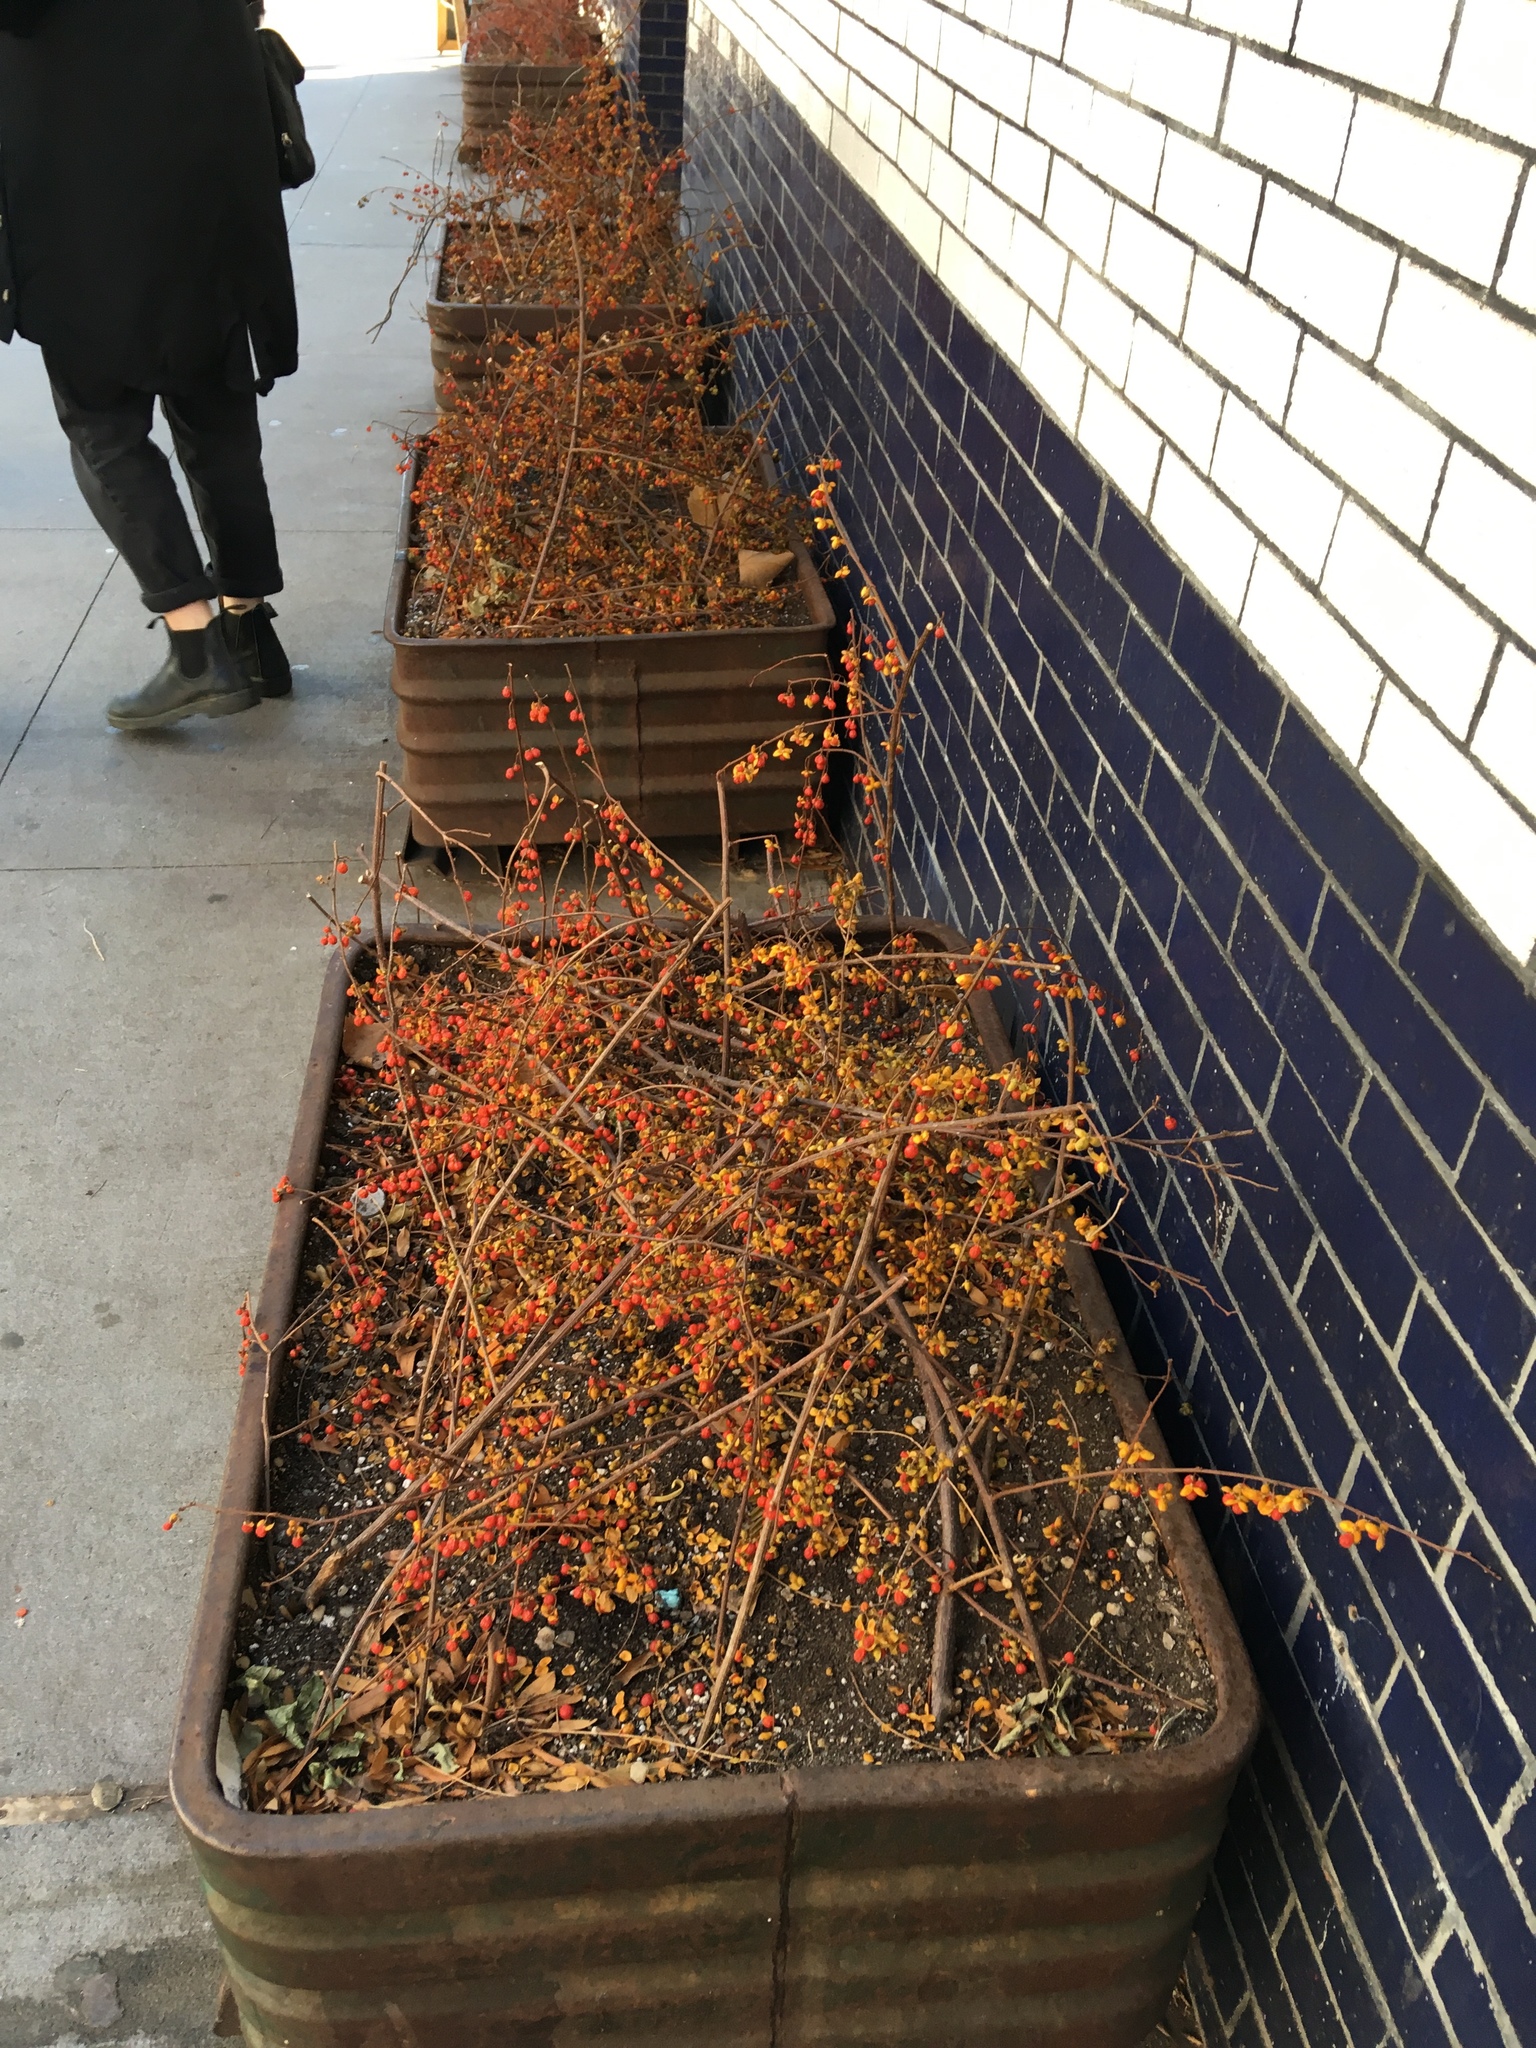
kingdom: Plantae
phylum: Tracheophyta
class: Magnoliopsida
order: Celastrales
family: Celastraceae
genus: Celastrus
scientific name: Celastrus orbiculatus
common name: Oriental bittersweet
